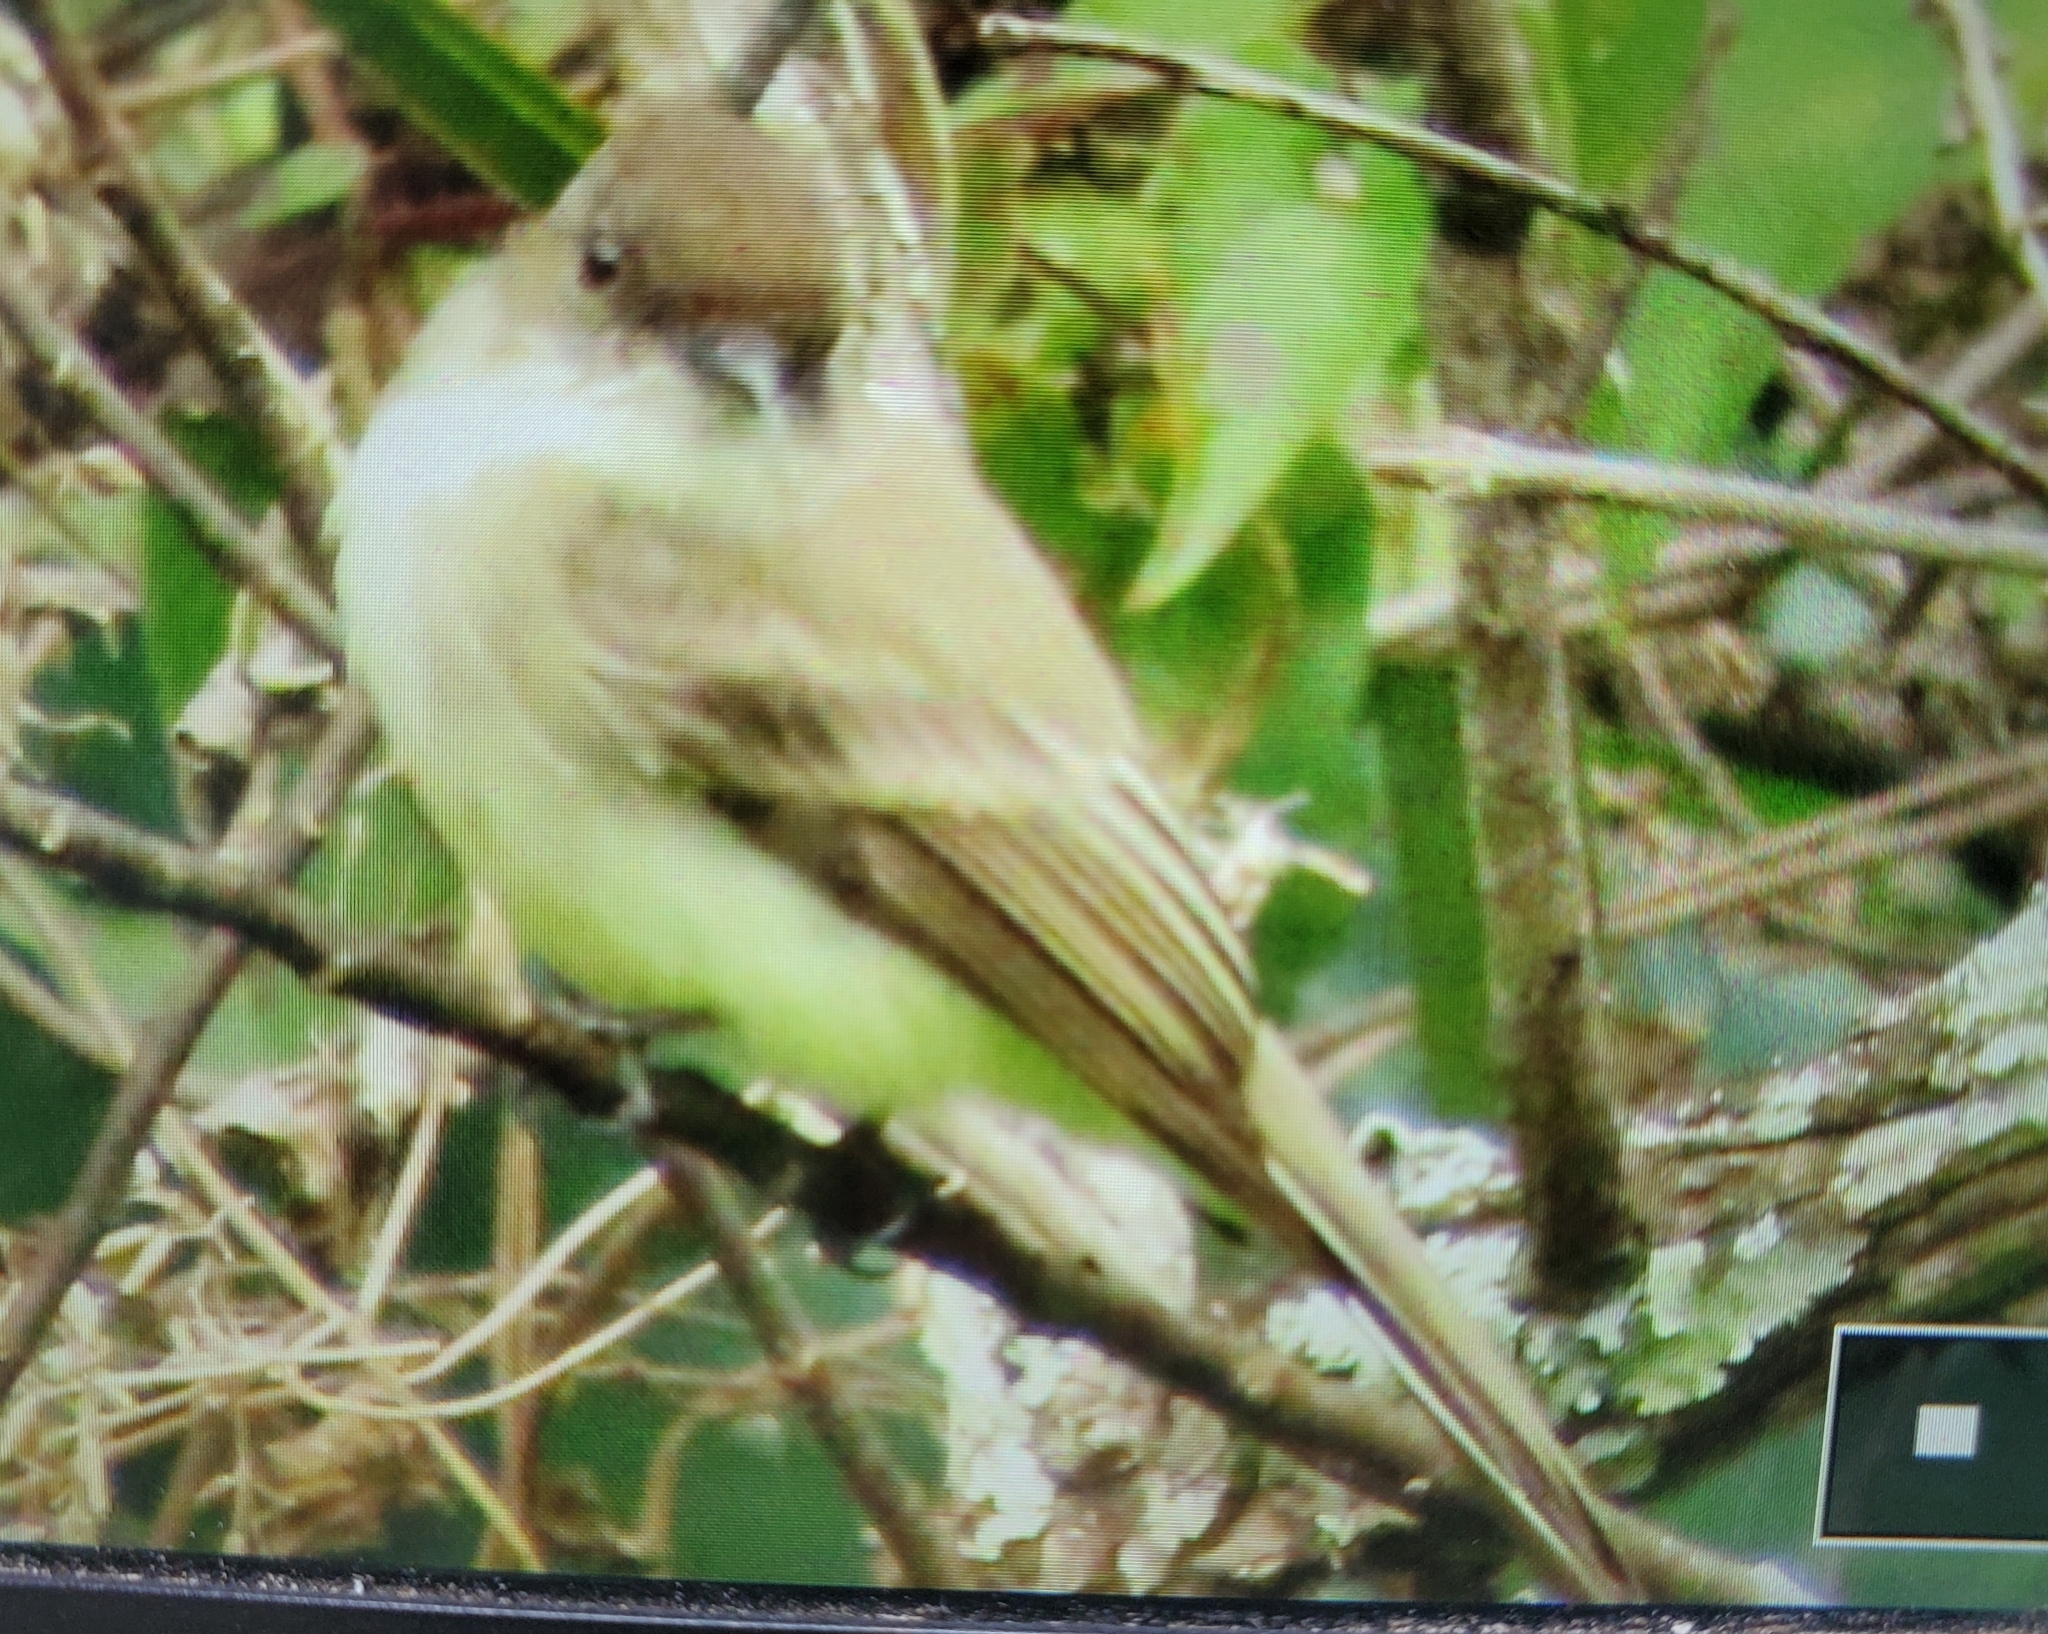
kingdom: Animalia
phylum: Chordata
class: Aves
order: Passeriformes
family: Tyrannidae
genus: Sayornis
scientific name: Sayornis phoebe
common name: Eastern phoebe
